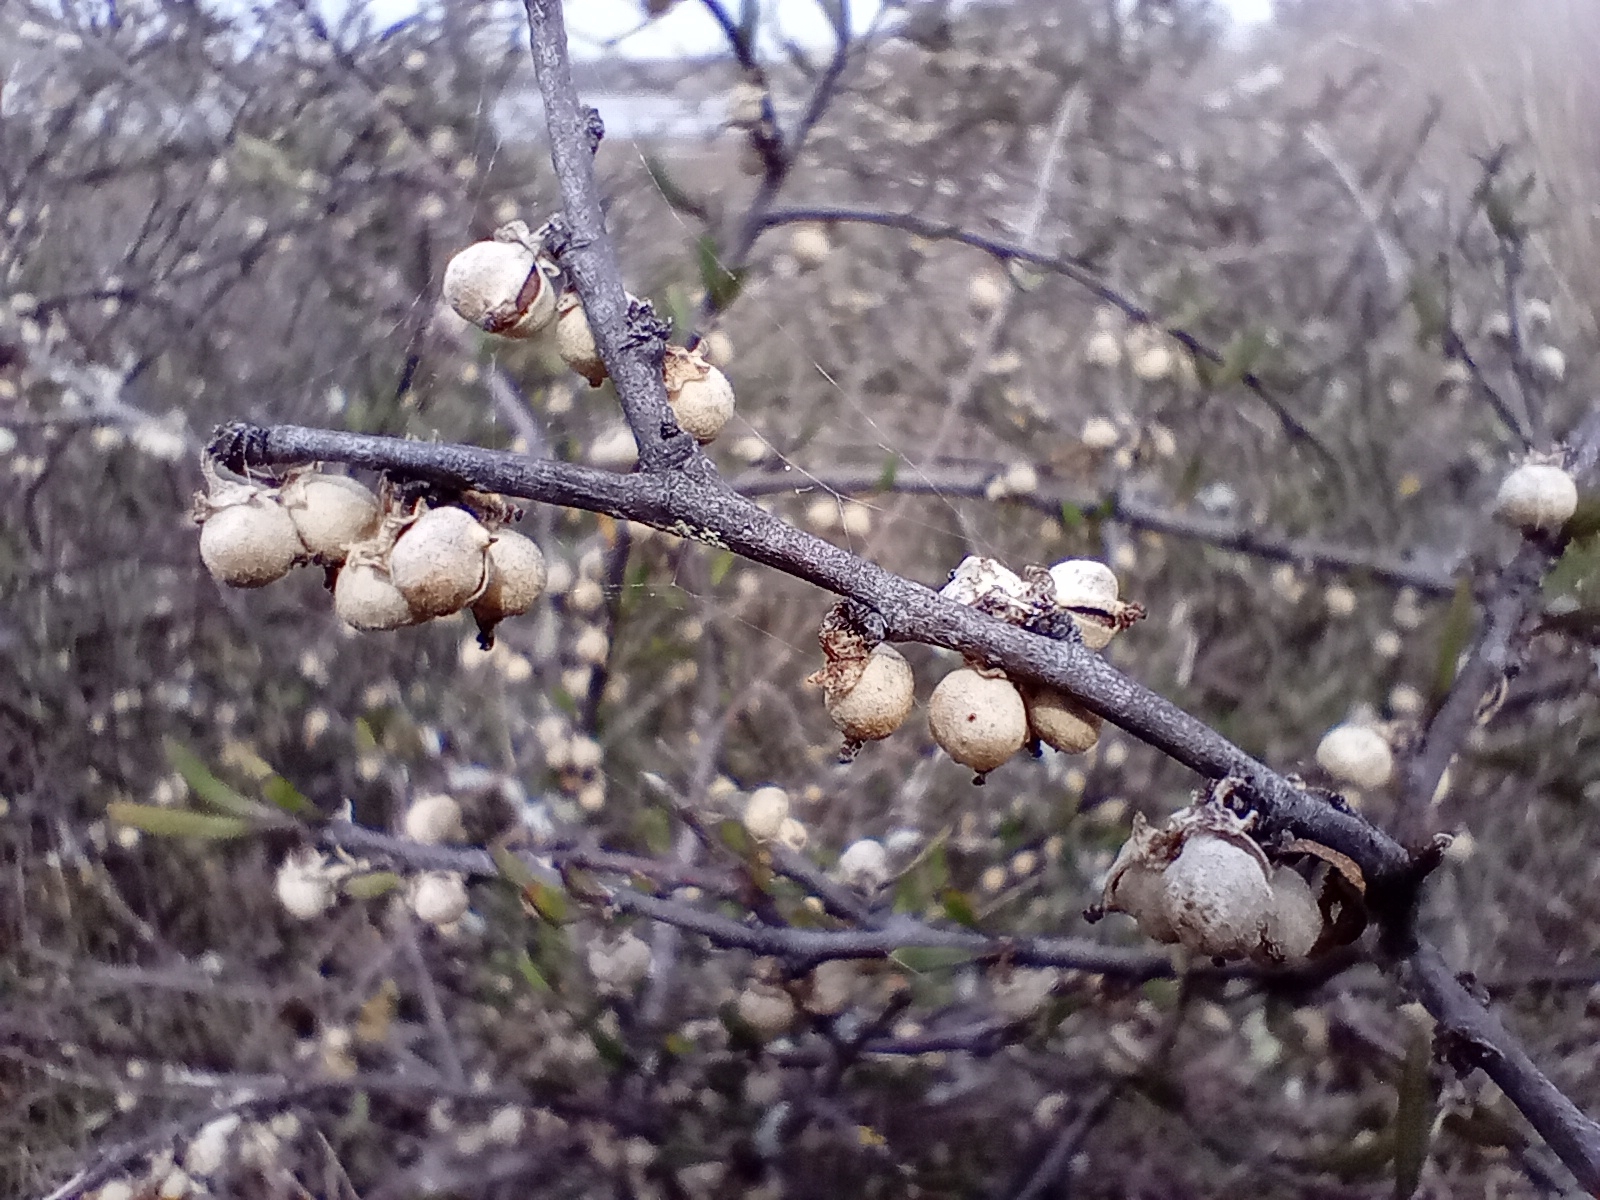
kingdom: Plantae
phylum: Tracheophyta
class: Magnoliopsida
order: Malvales
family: Malvaceae
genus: Plagianthus
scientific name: Plagianthus divaricatus
